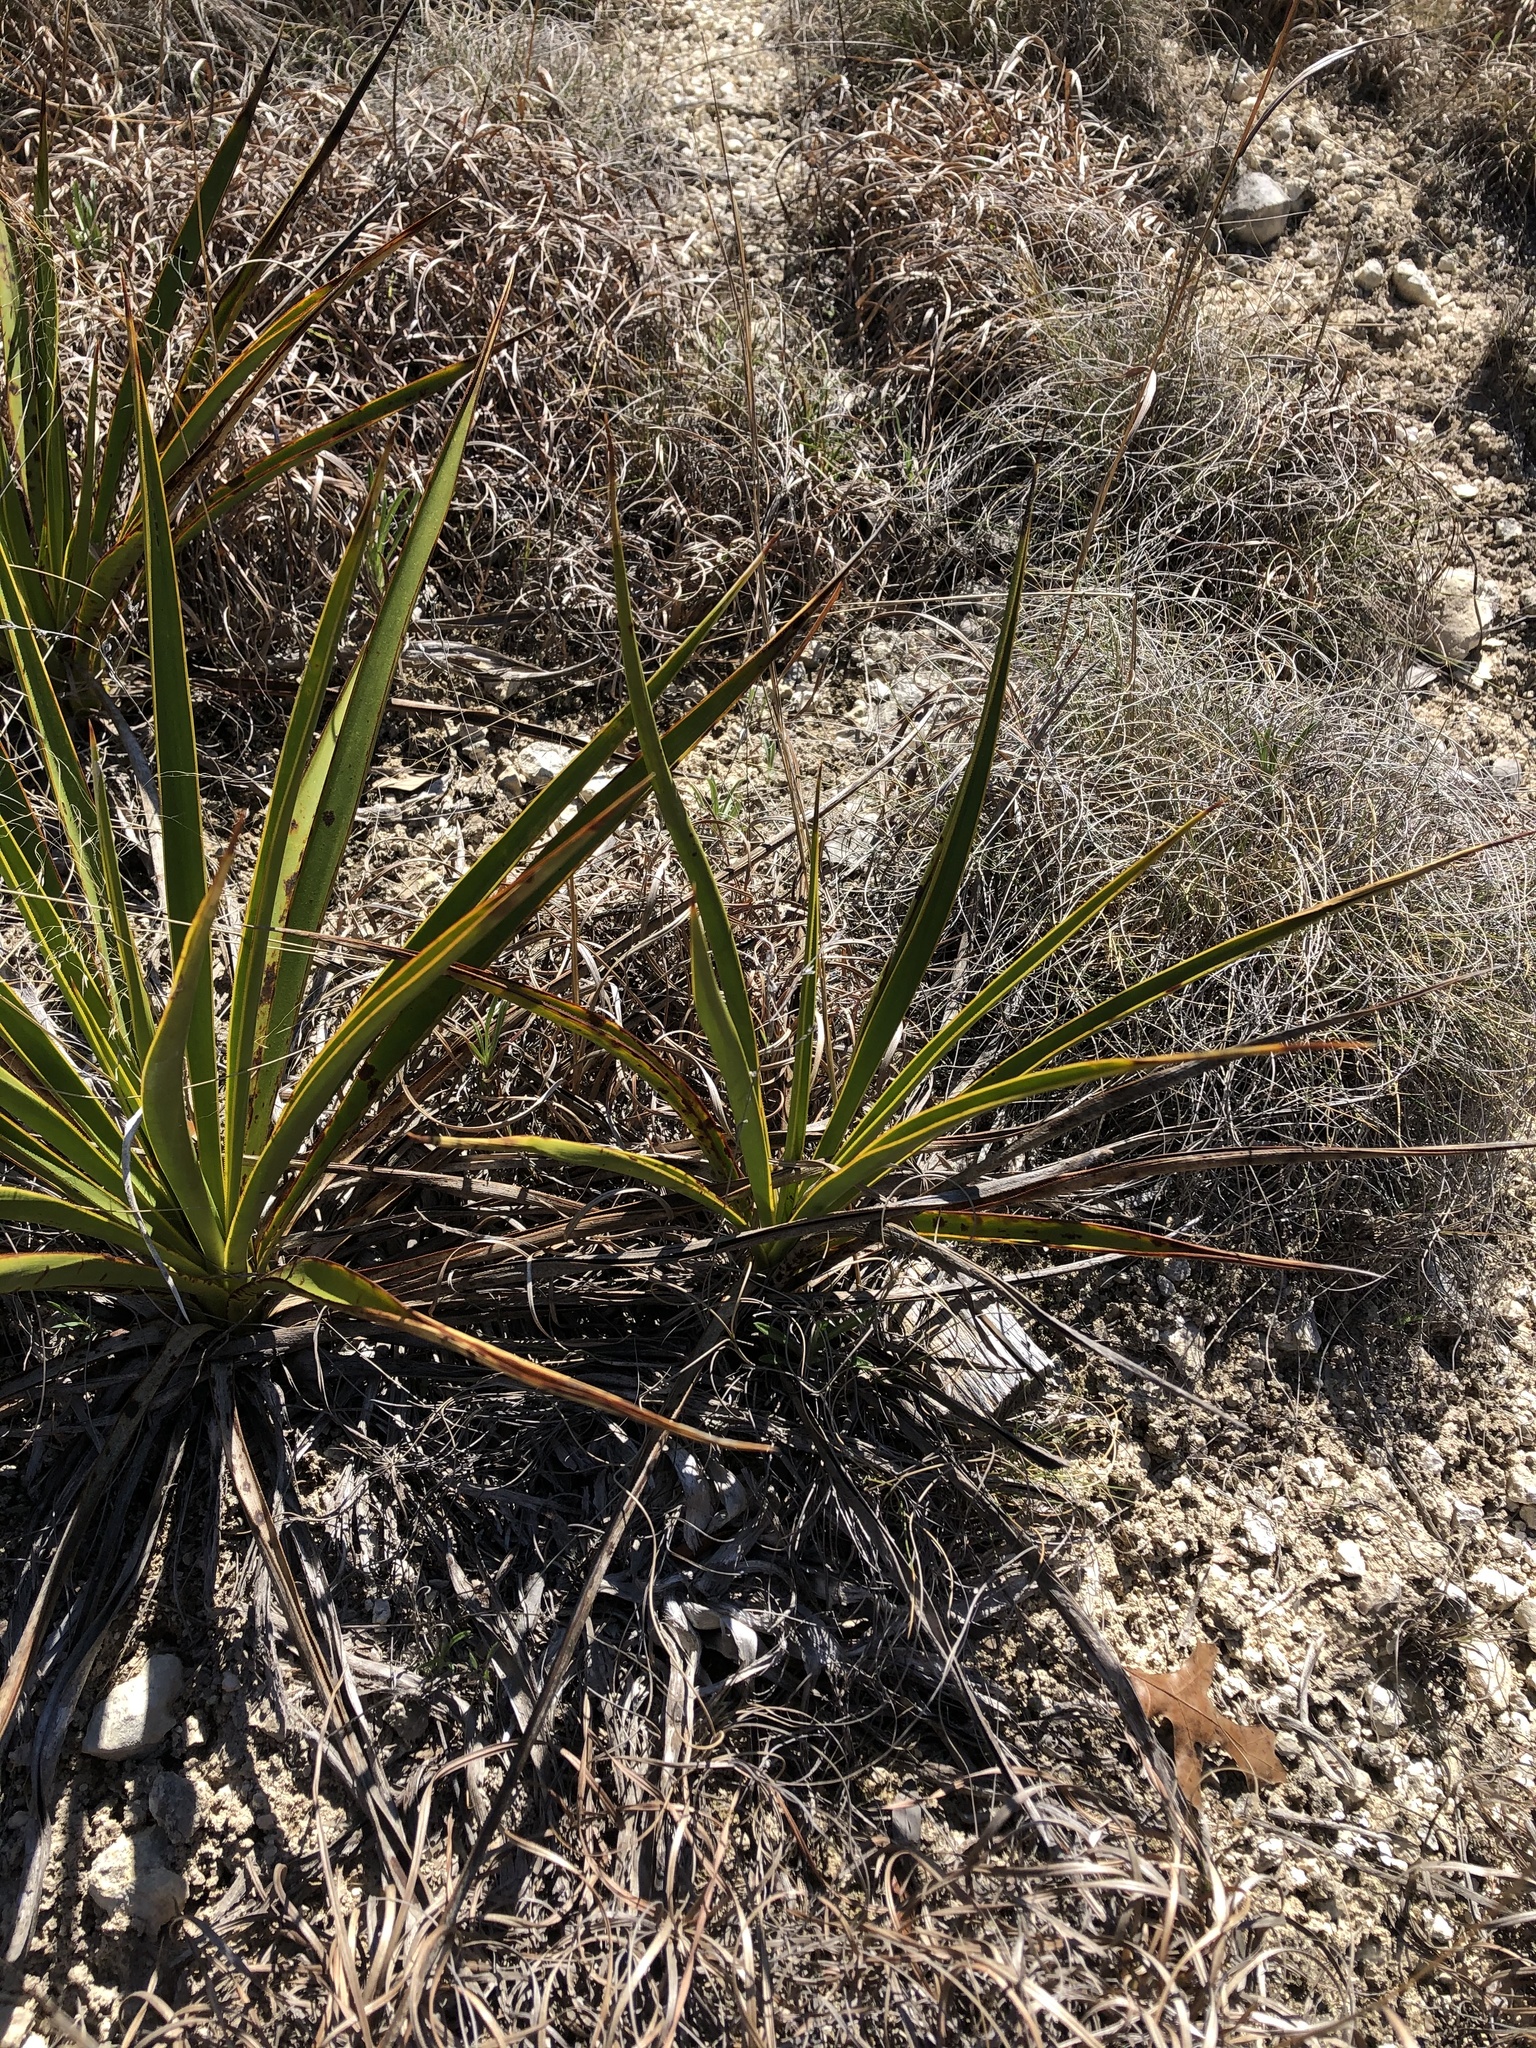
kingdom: Plantae
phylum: Tracheophyta
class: Liliopsida
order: Asparagales
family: Asparagaceae
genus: Yucca
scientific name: Yucca rupicola
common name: Twisted-leaf spanish-dagger
